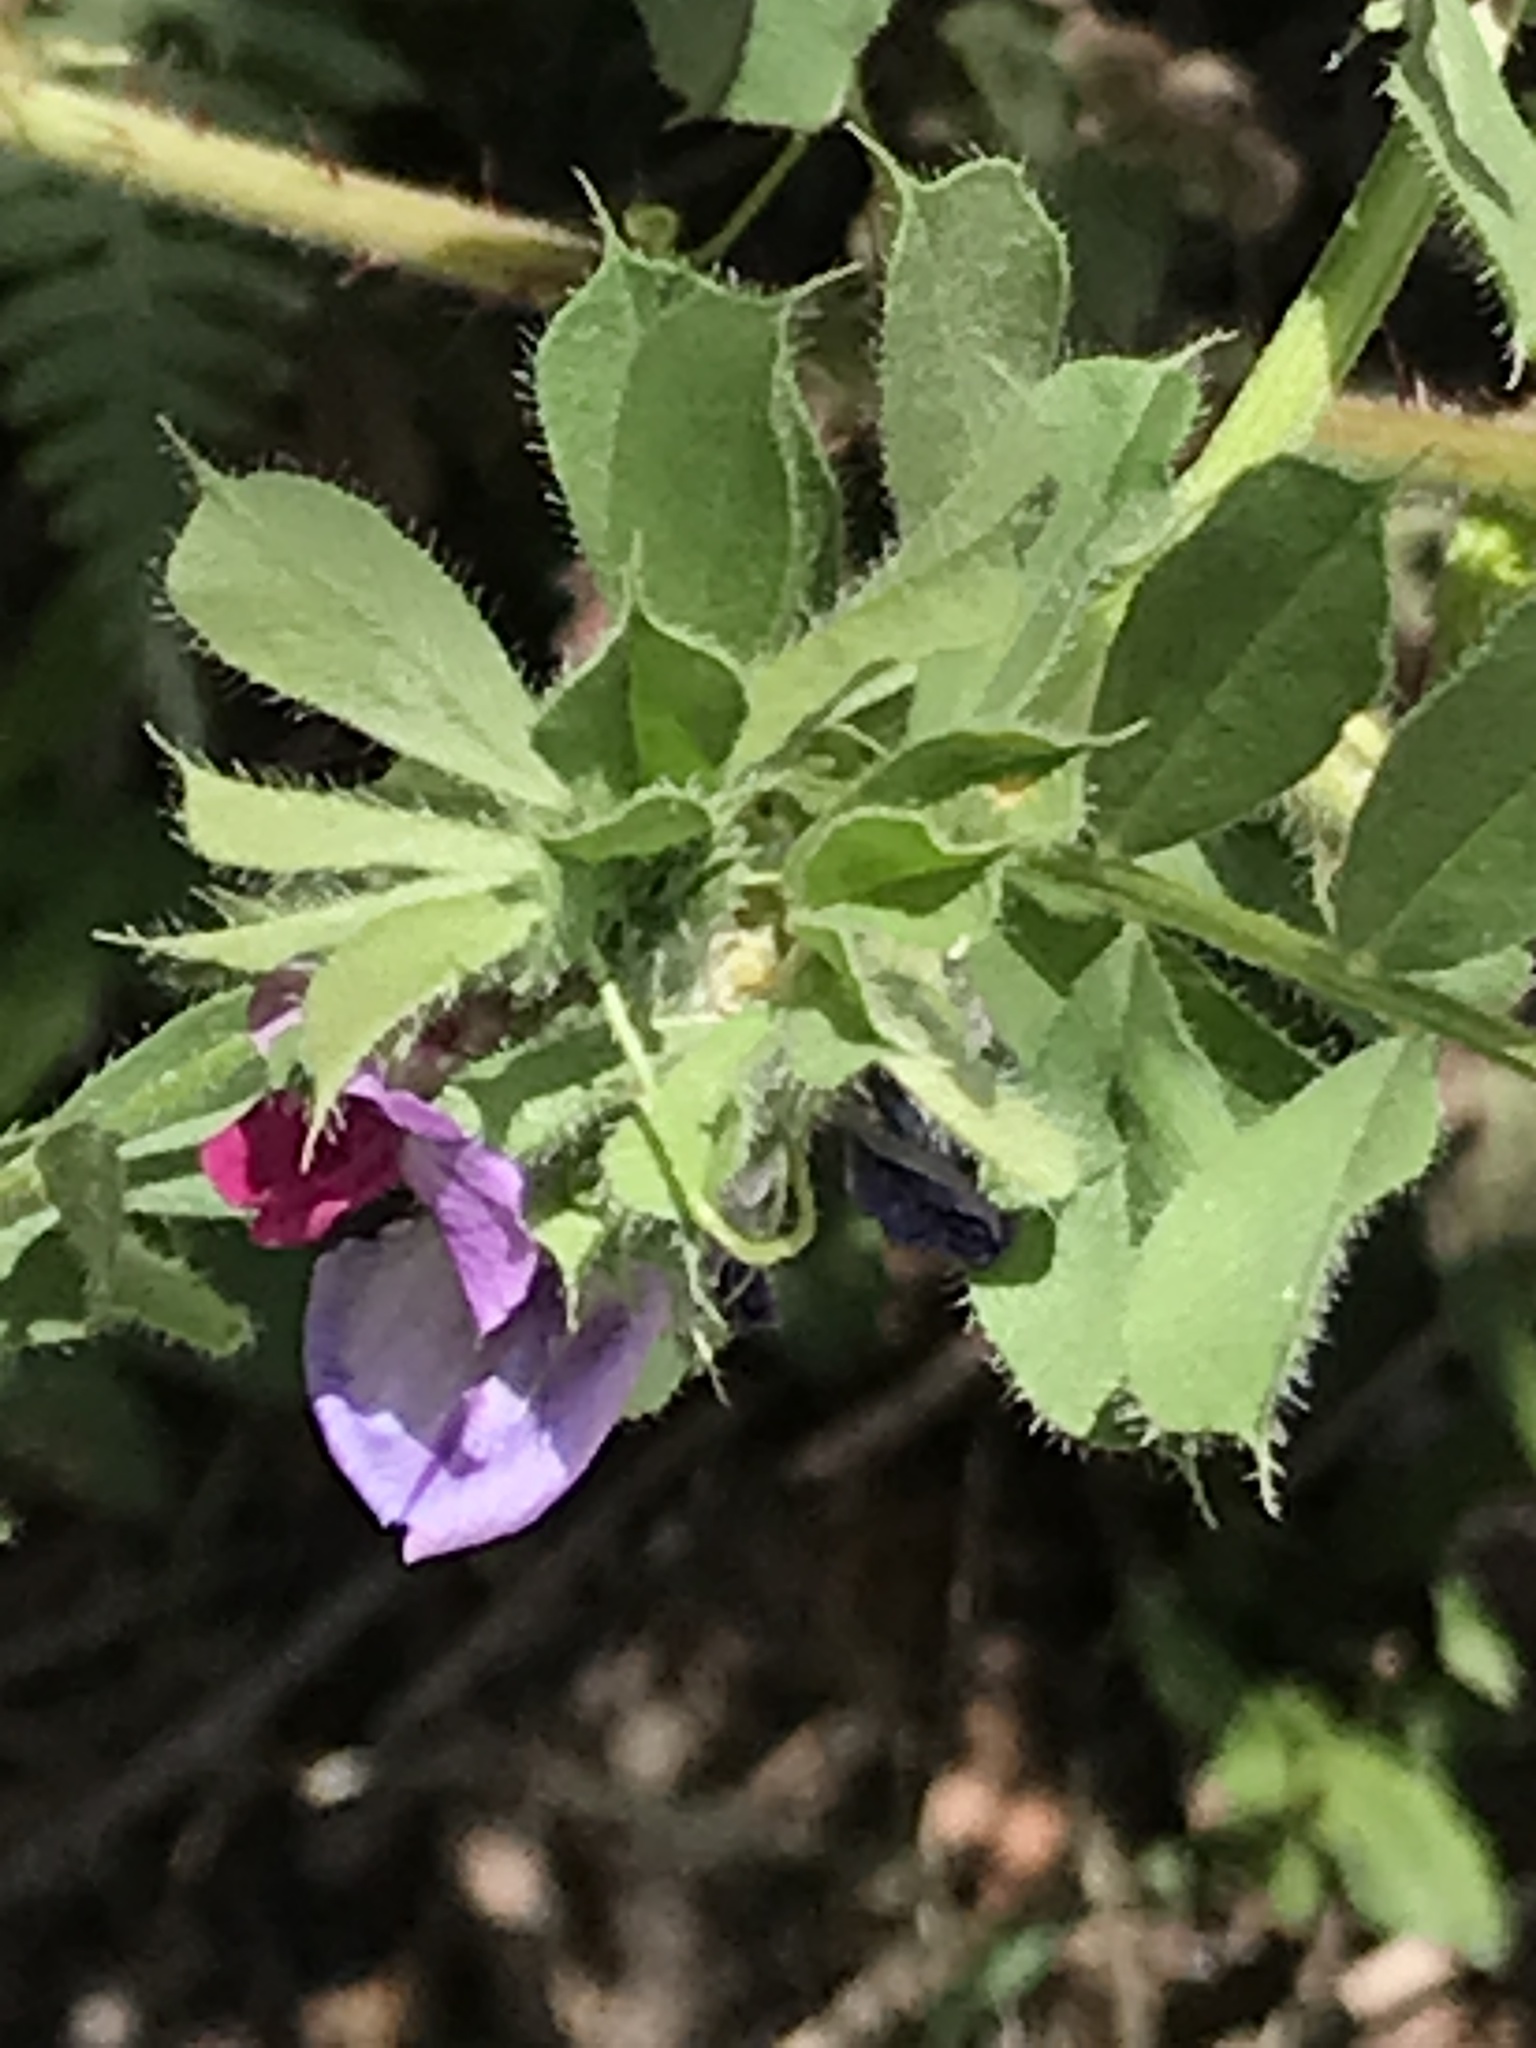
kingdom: Plantae
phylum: Tracheophyta
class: Magnoliopsida
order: Fabales
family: Fabaceae
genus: Vicia
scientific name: Vicia sativa
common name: Garden vetch
